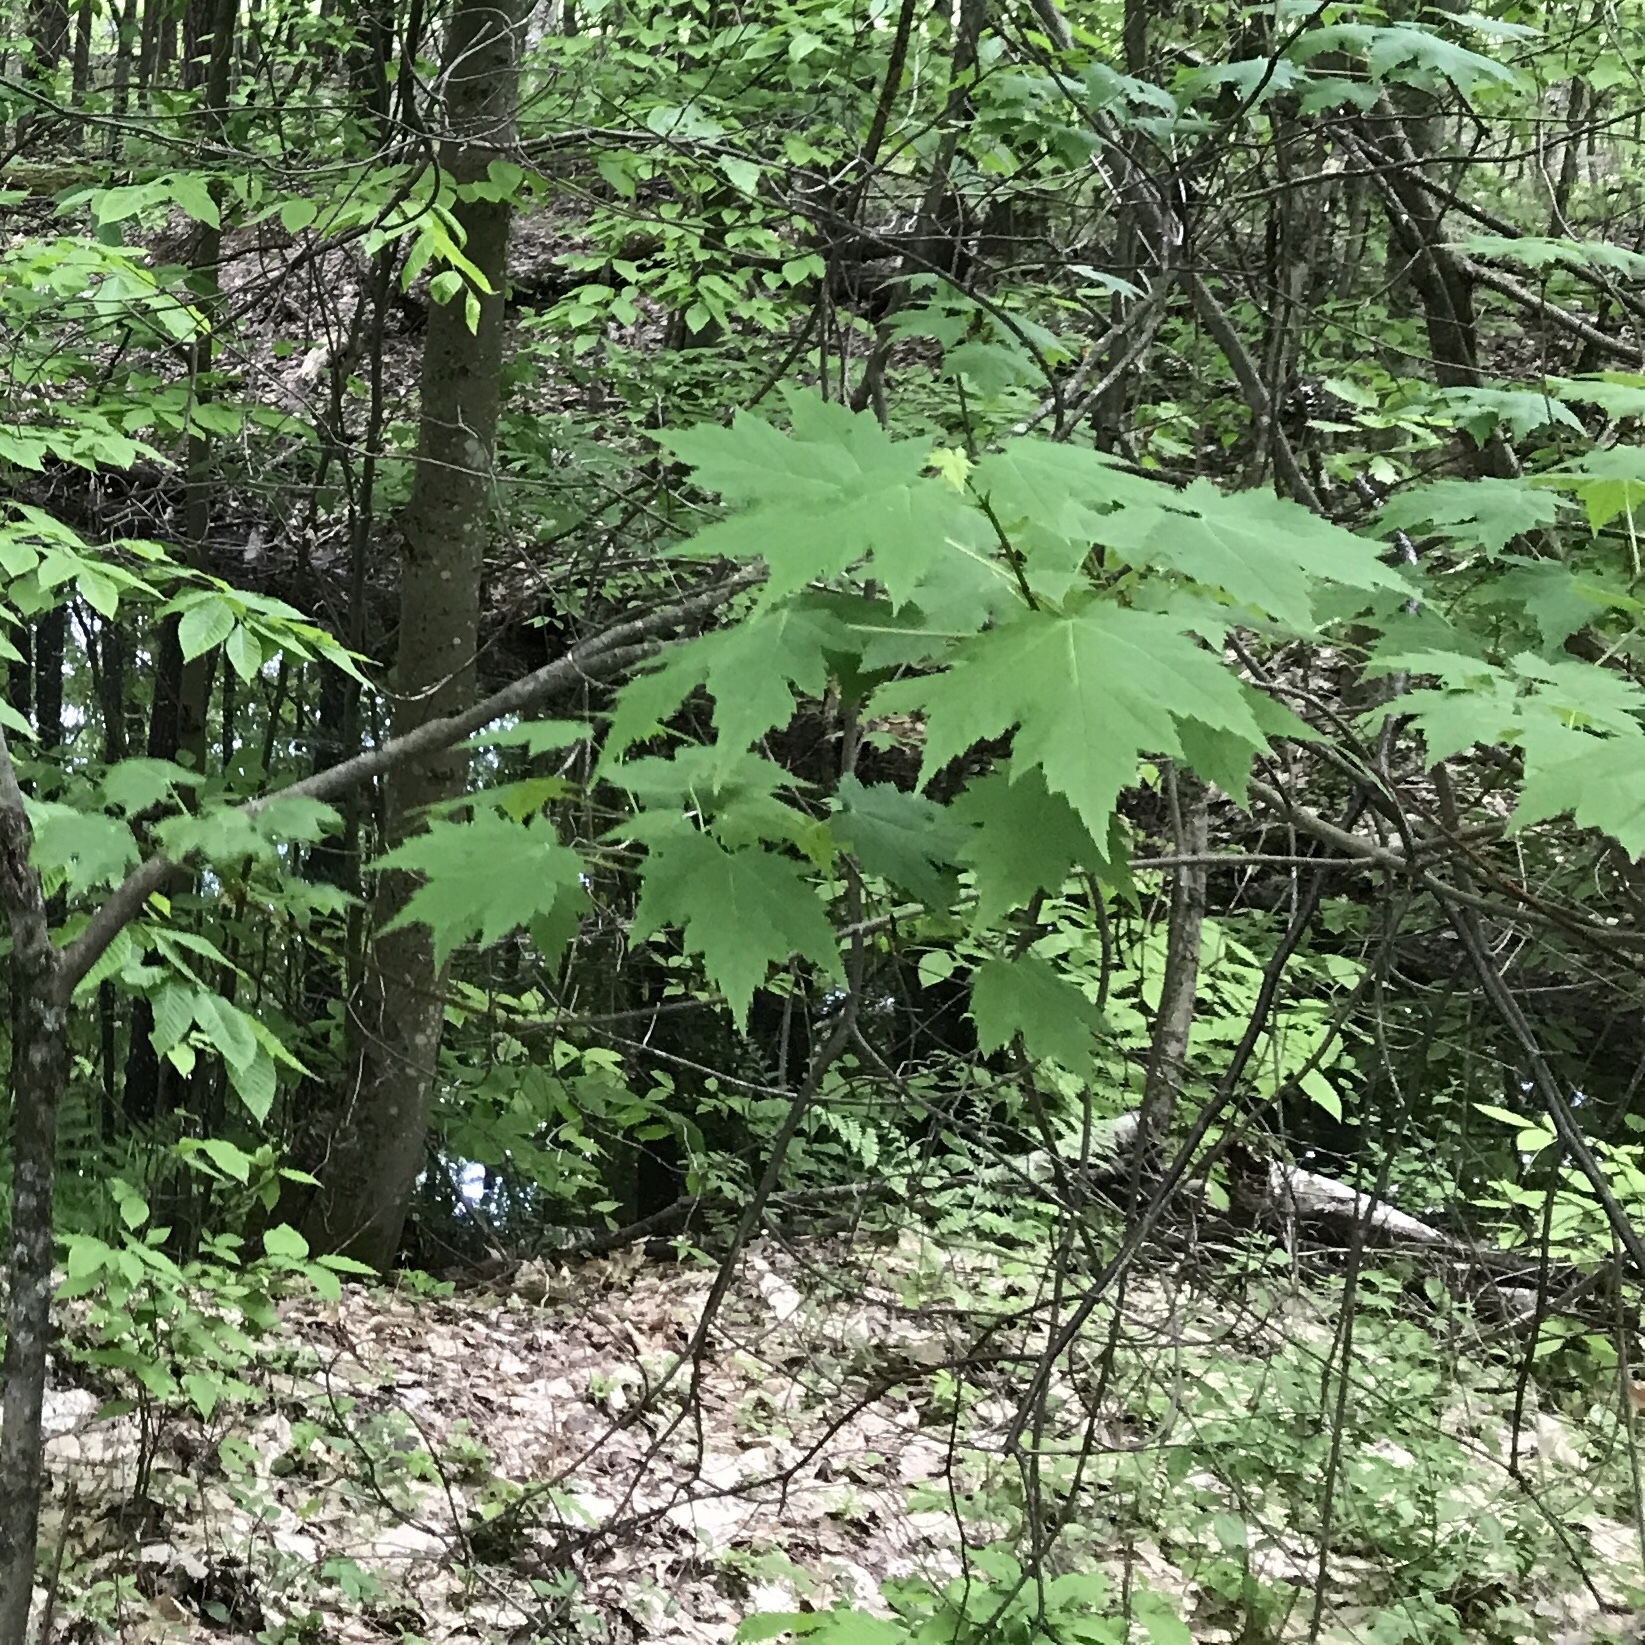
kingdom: Plantae
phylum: Tracheophyta
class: Magnoliopsida
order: Sapindales
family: Sapindaceae
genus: Acer
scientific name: Acer spicatum
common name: Mountain maple
